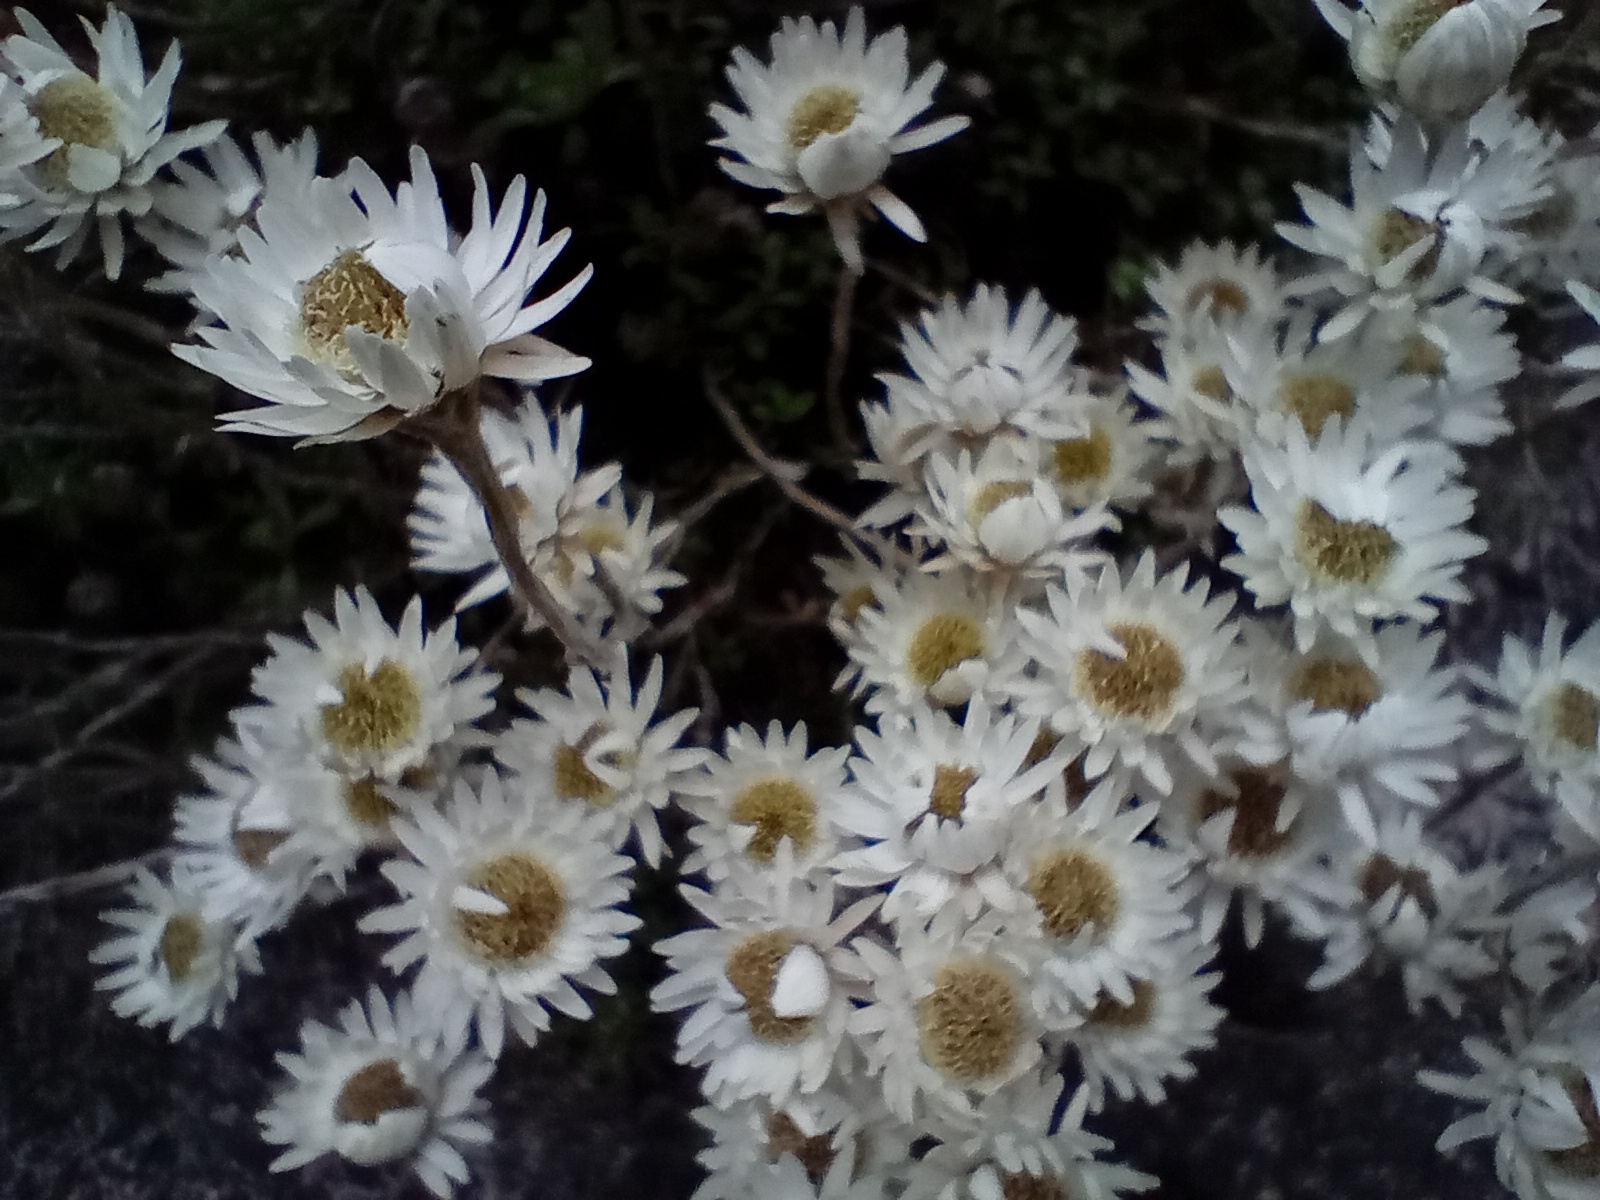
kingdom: Plantae
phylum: Tracheophyta
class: Magnoliopsida
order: Asterales
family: Asteraceae
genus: Anaphalioides
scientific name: Anaphalioides bellidioides
